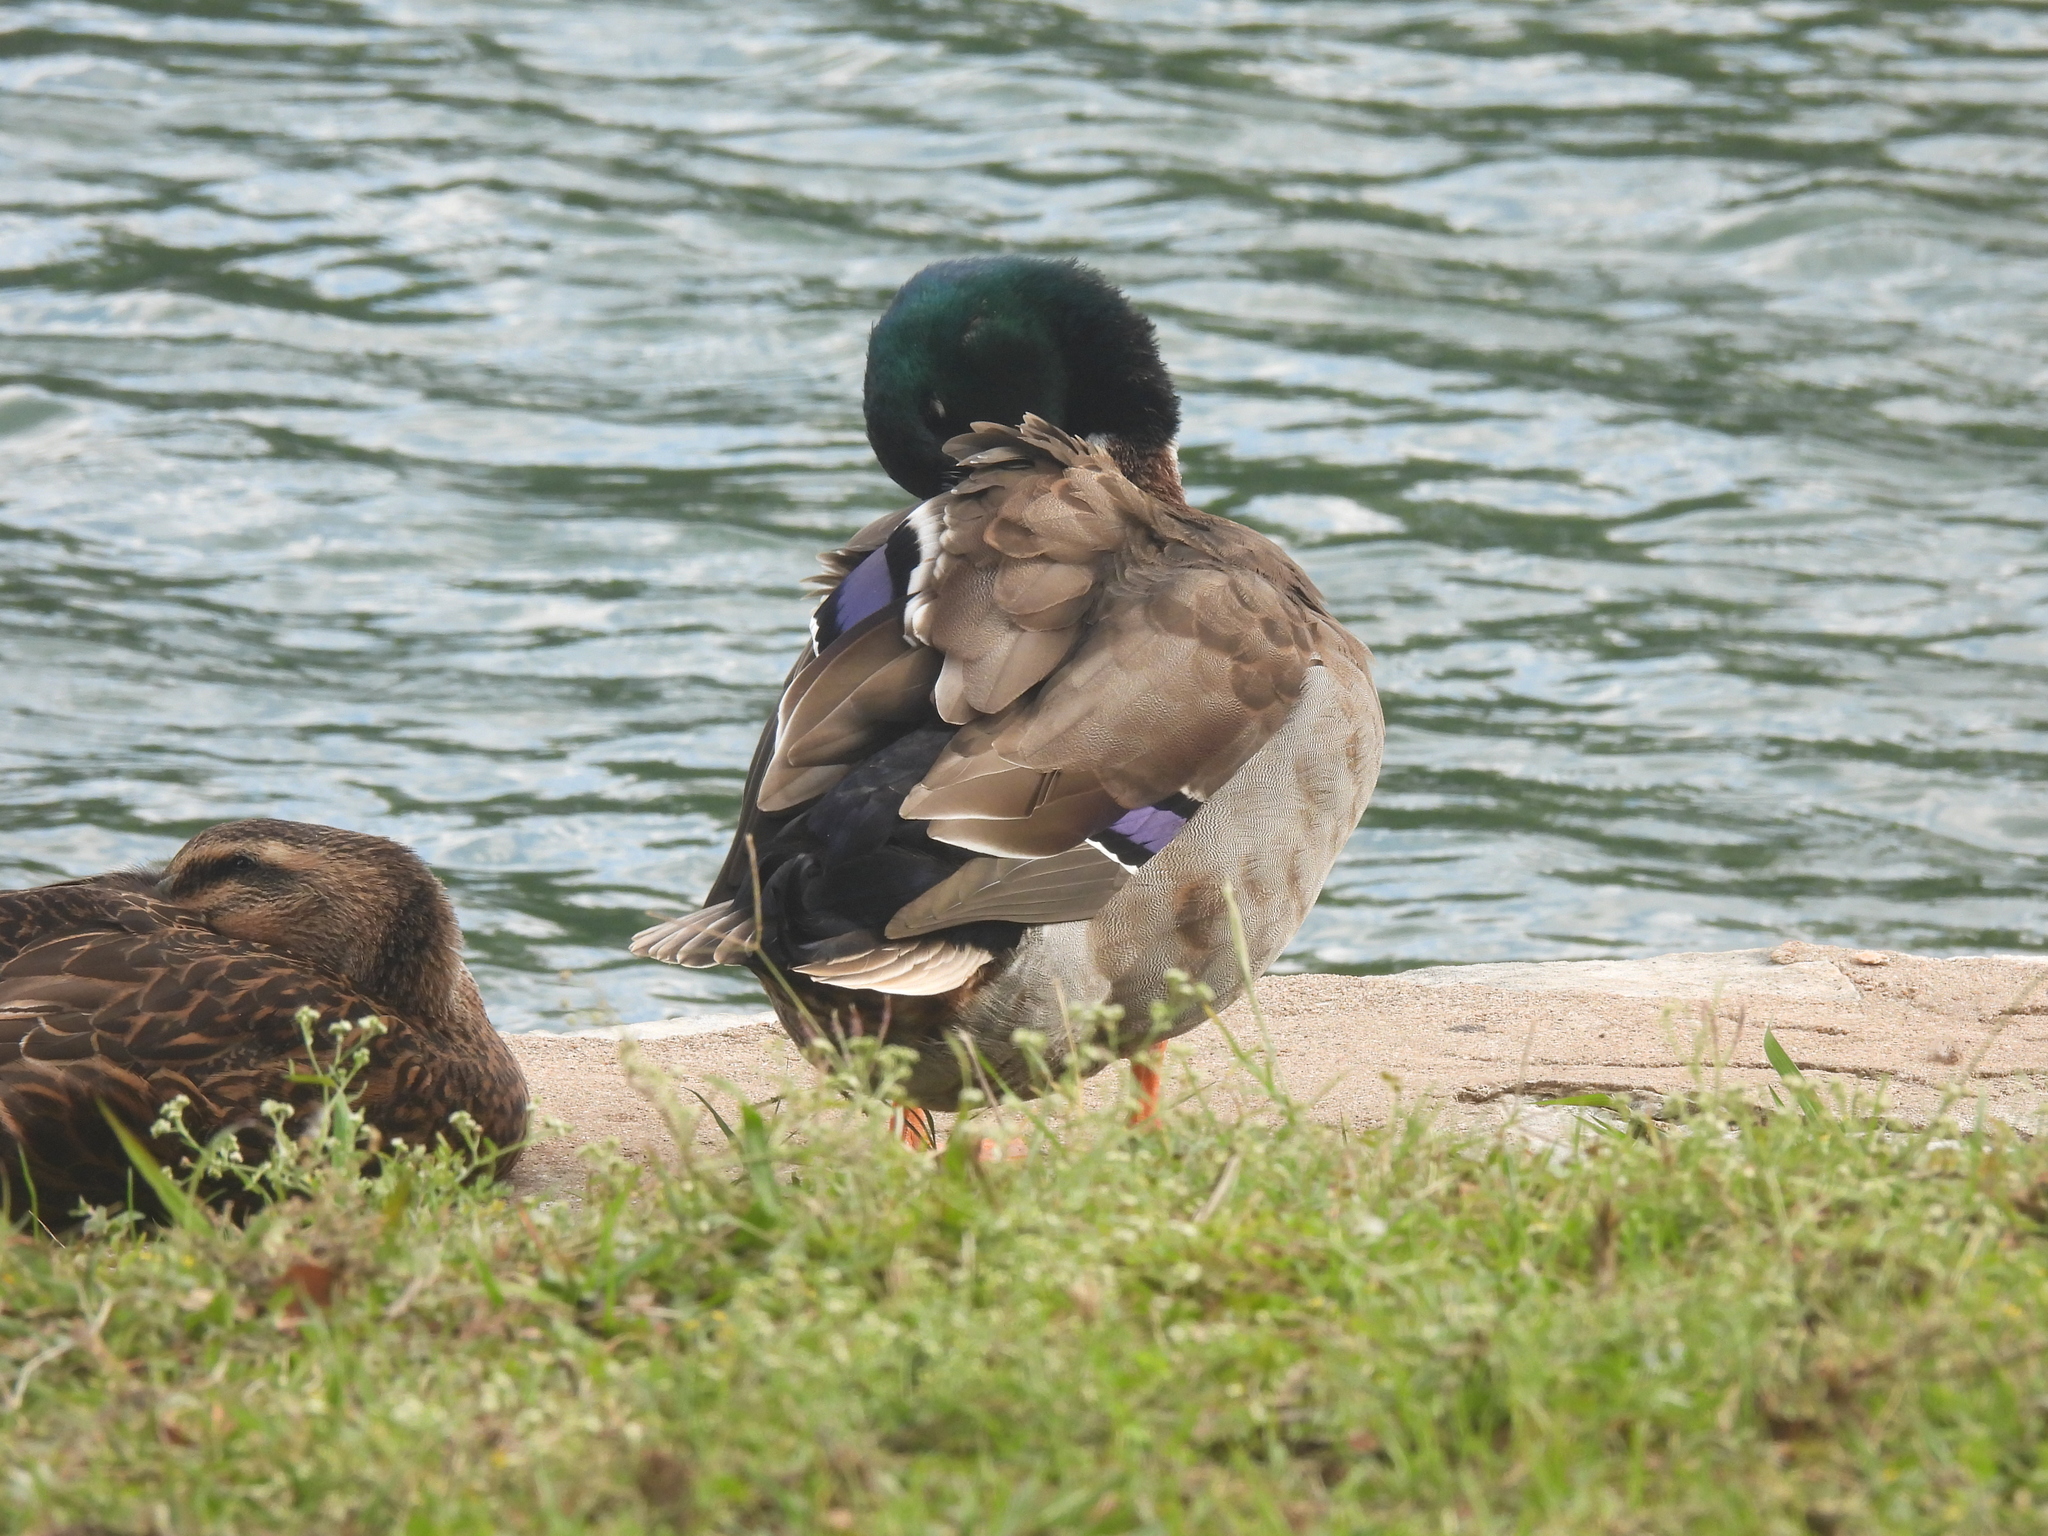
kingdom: Animalia
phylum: Chordata
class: Aves
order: Anseriformes
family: Anatidae
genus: Anas
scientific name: Anas platyrhynchos
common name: Mallard
